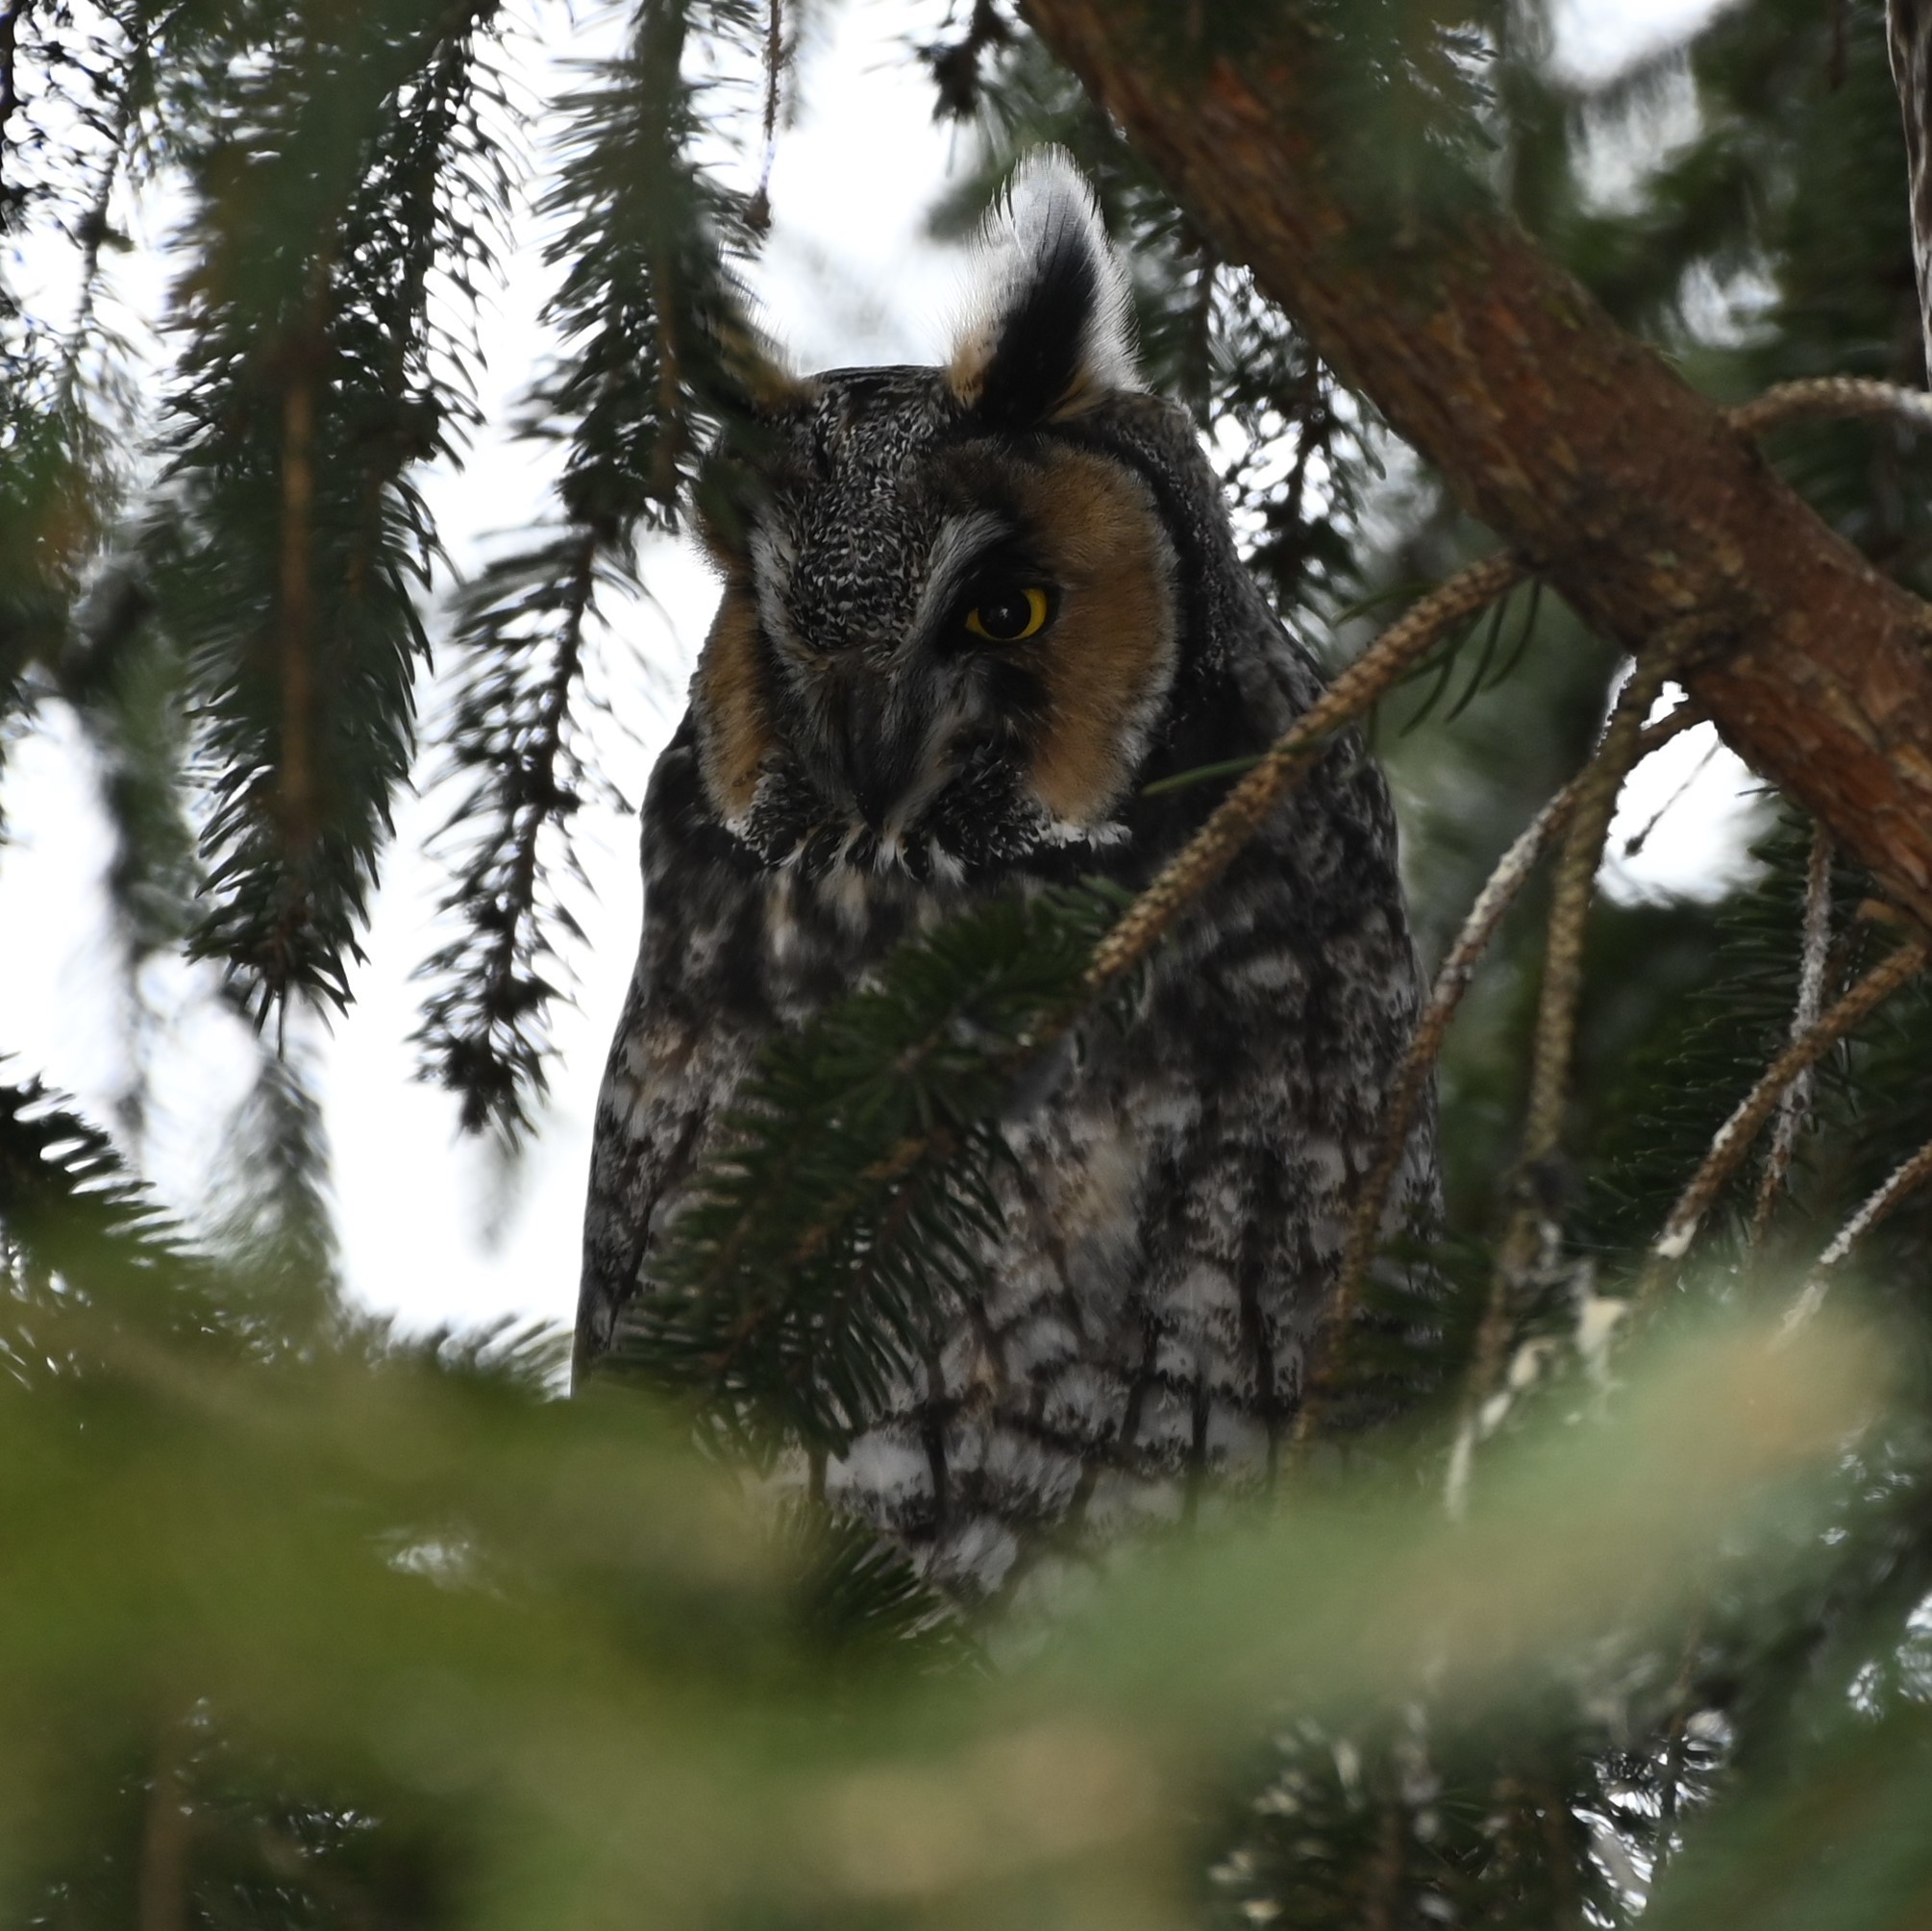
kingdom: Animalia
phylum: Chordata
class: Aves
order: Strigiformes
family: Strigidae
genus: Asio
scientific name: Asio otus
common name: Long-eared owl
